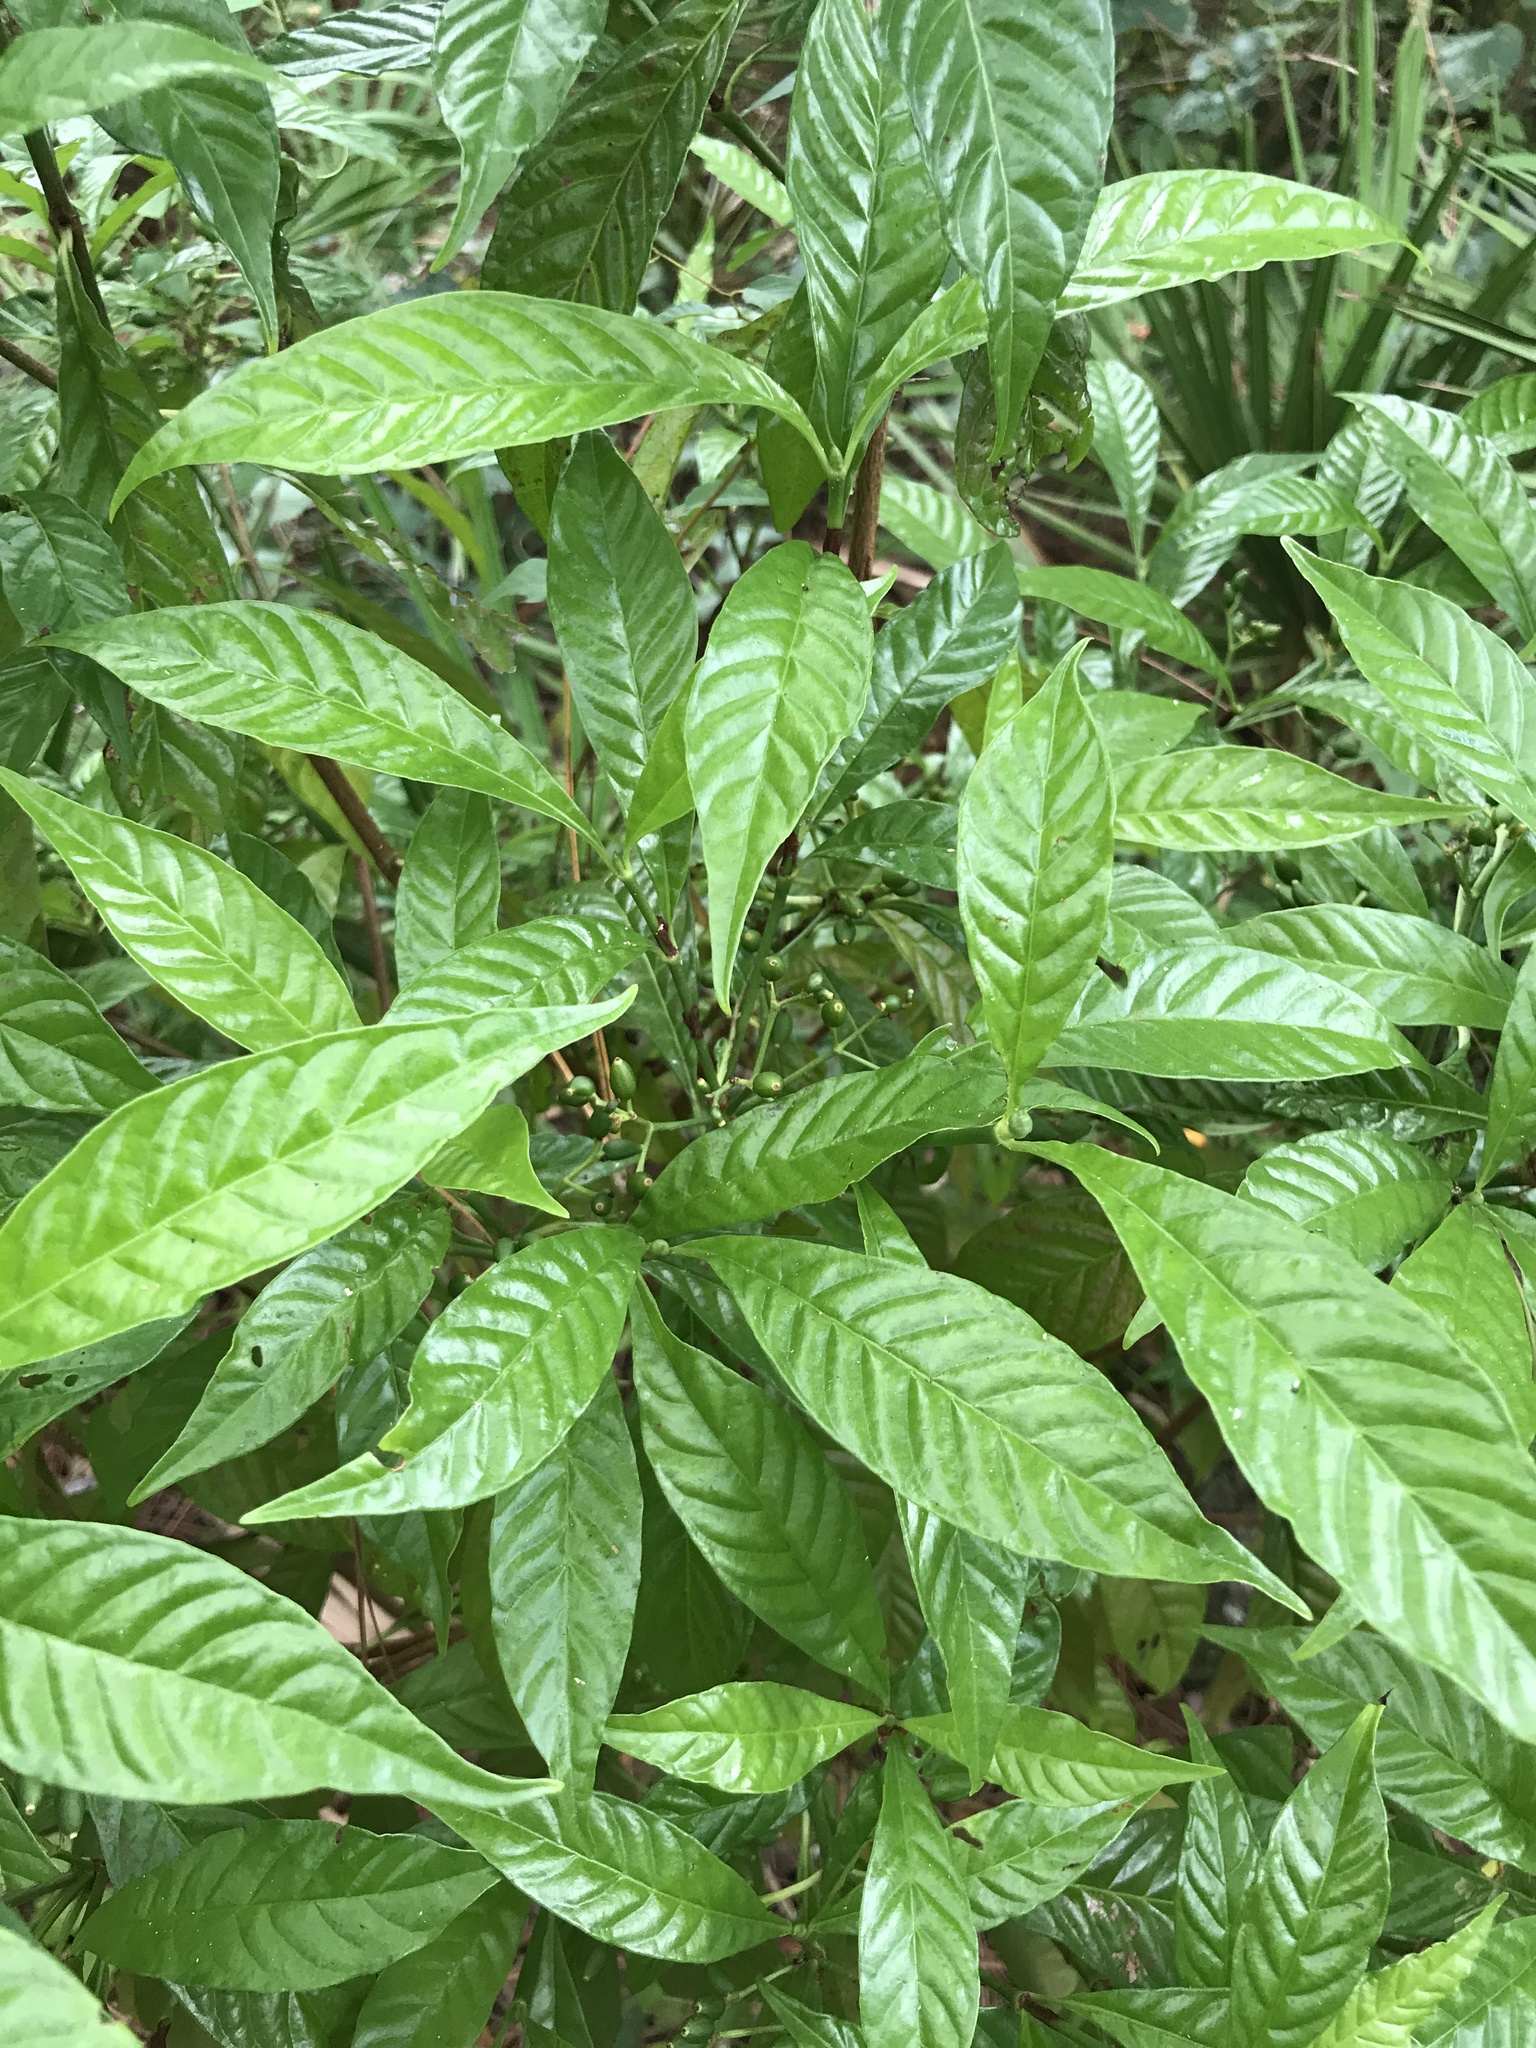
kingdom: Plantae
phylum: Tracheophyta
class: Magnoliopsida
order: Gentianales
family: Rubiaceae
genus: Psychotria
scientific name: Psychotria nervosa
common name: Bastard cankerberry
